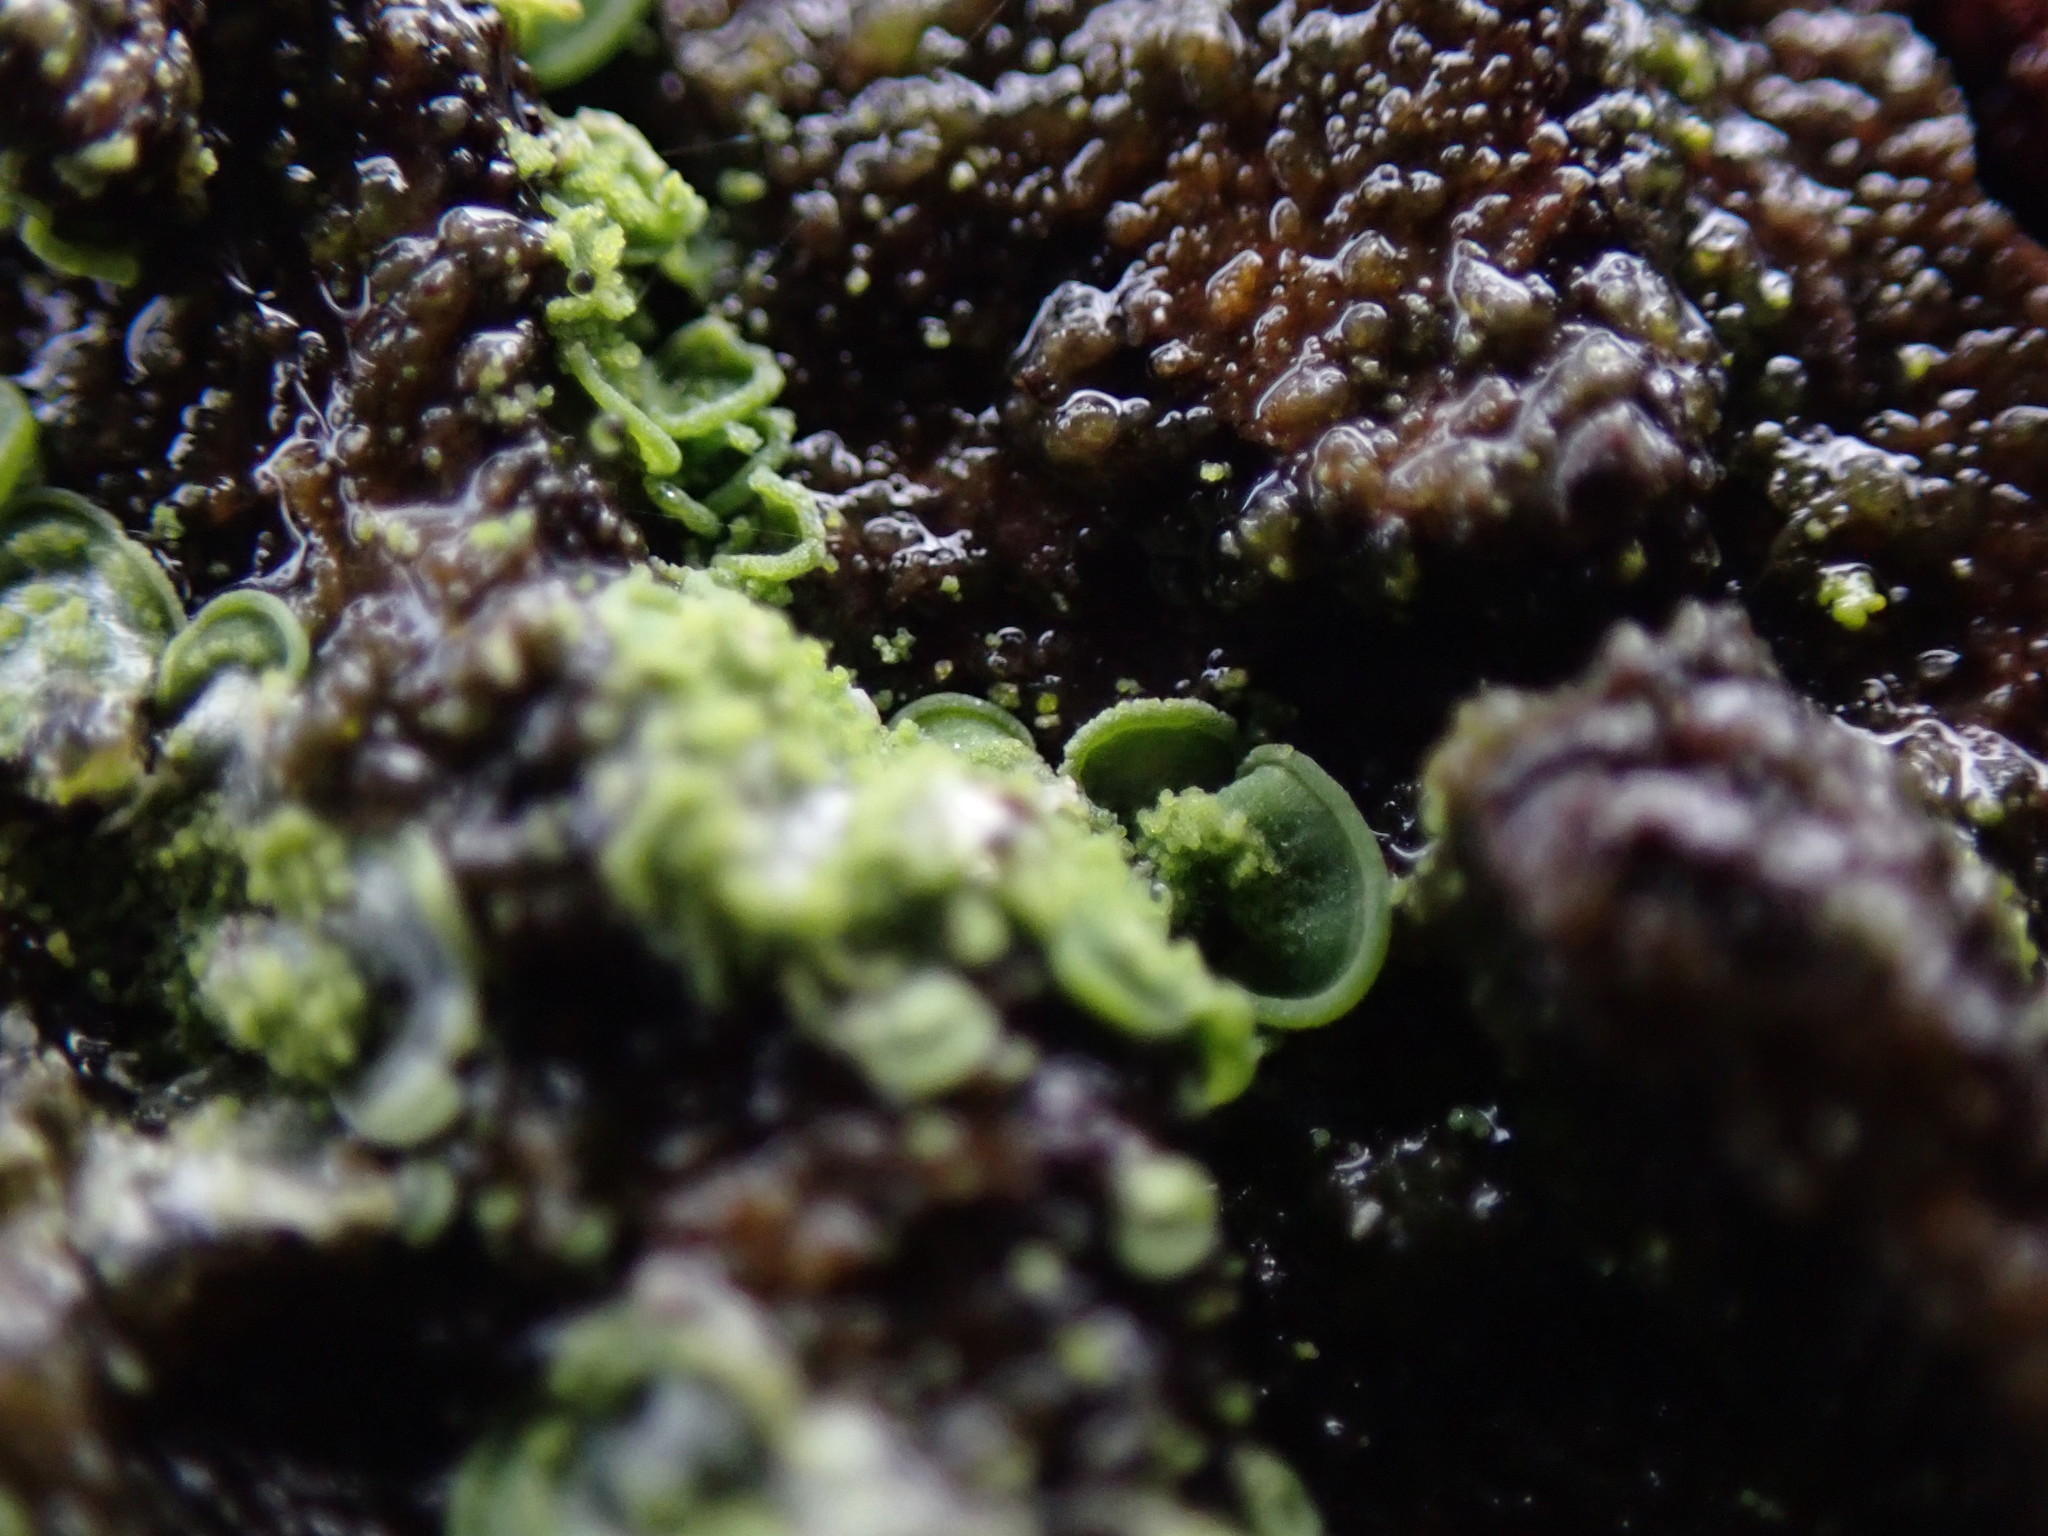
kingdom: Fungi
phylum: Ascomycota
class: Eurotiomycetes
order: Verrucariales
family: Verrucariaceae
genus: Normandina
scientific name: Normandina pulchella
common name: Elf ears lichen
